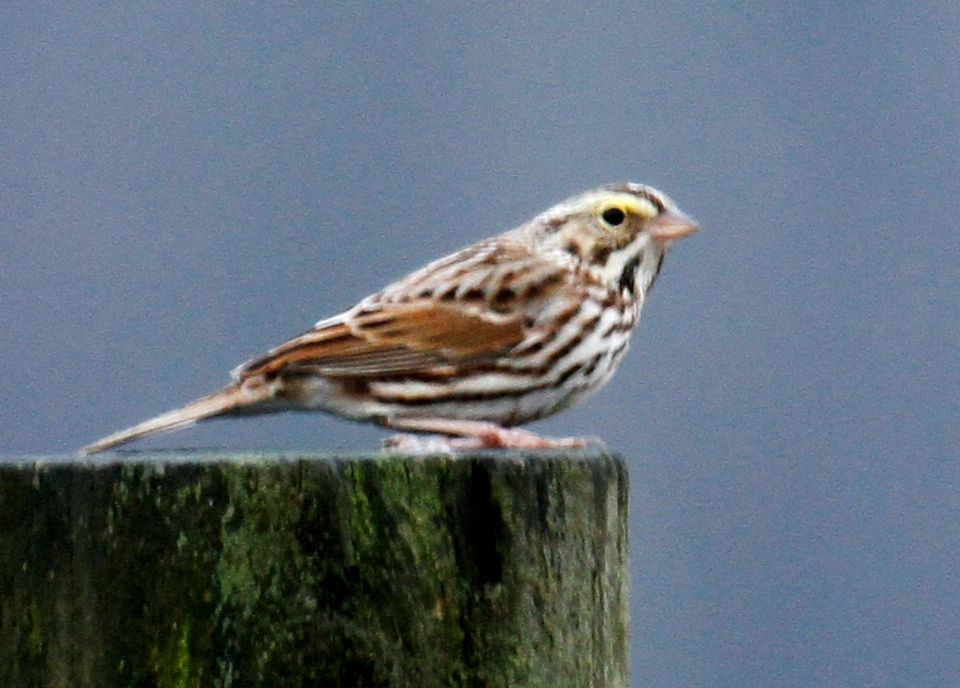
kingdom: Animalia
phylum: Chordata
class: Aves
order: Passeriformes
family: Passerellidae
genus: Passerculus
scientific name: Passerculus sandwichensis
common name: Savannah sparrow
